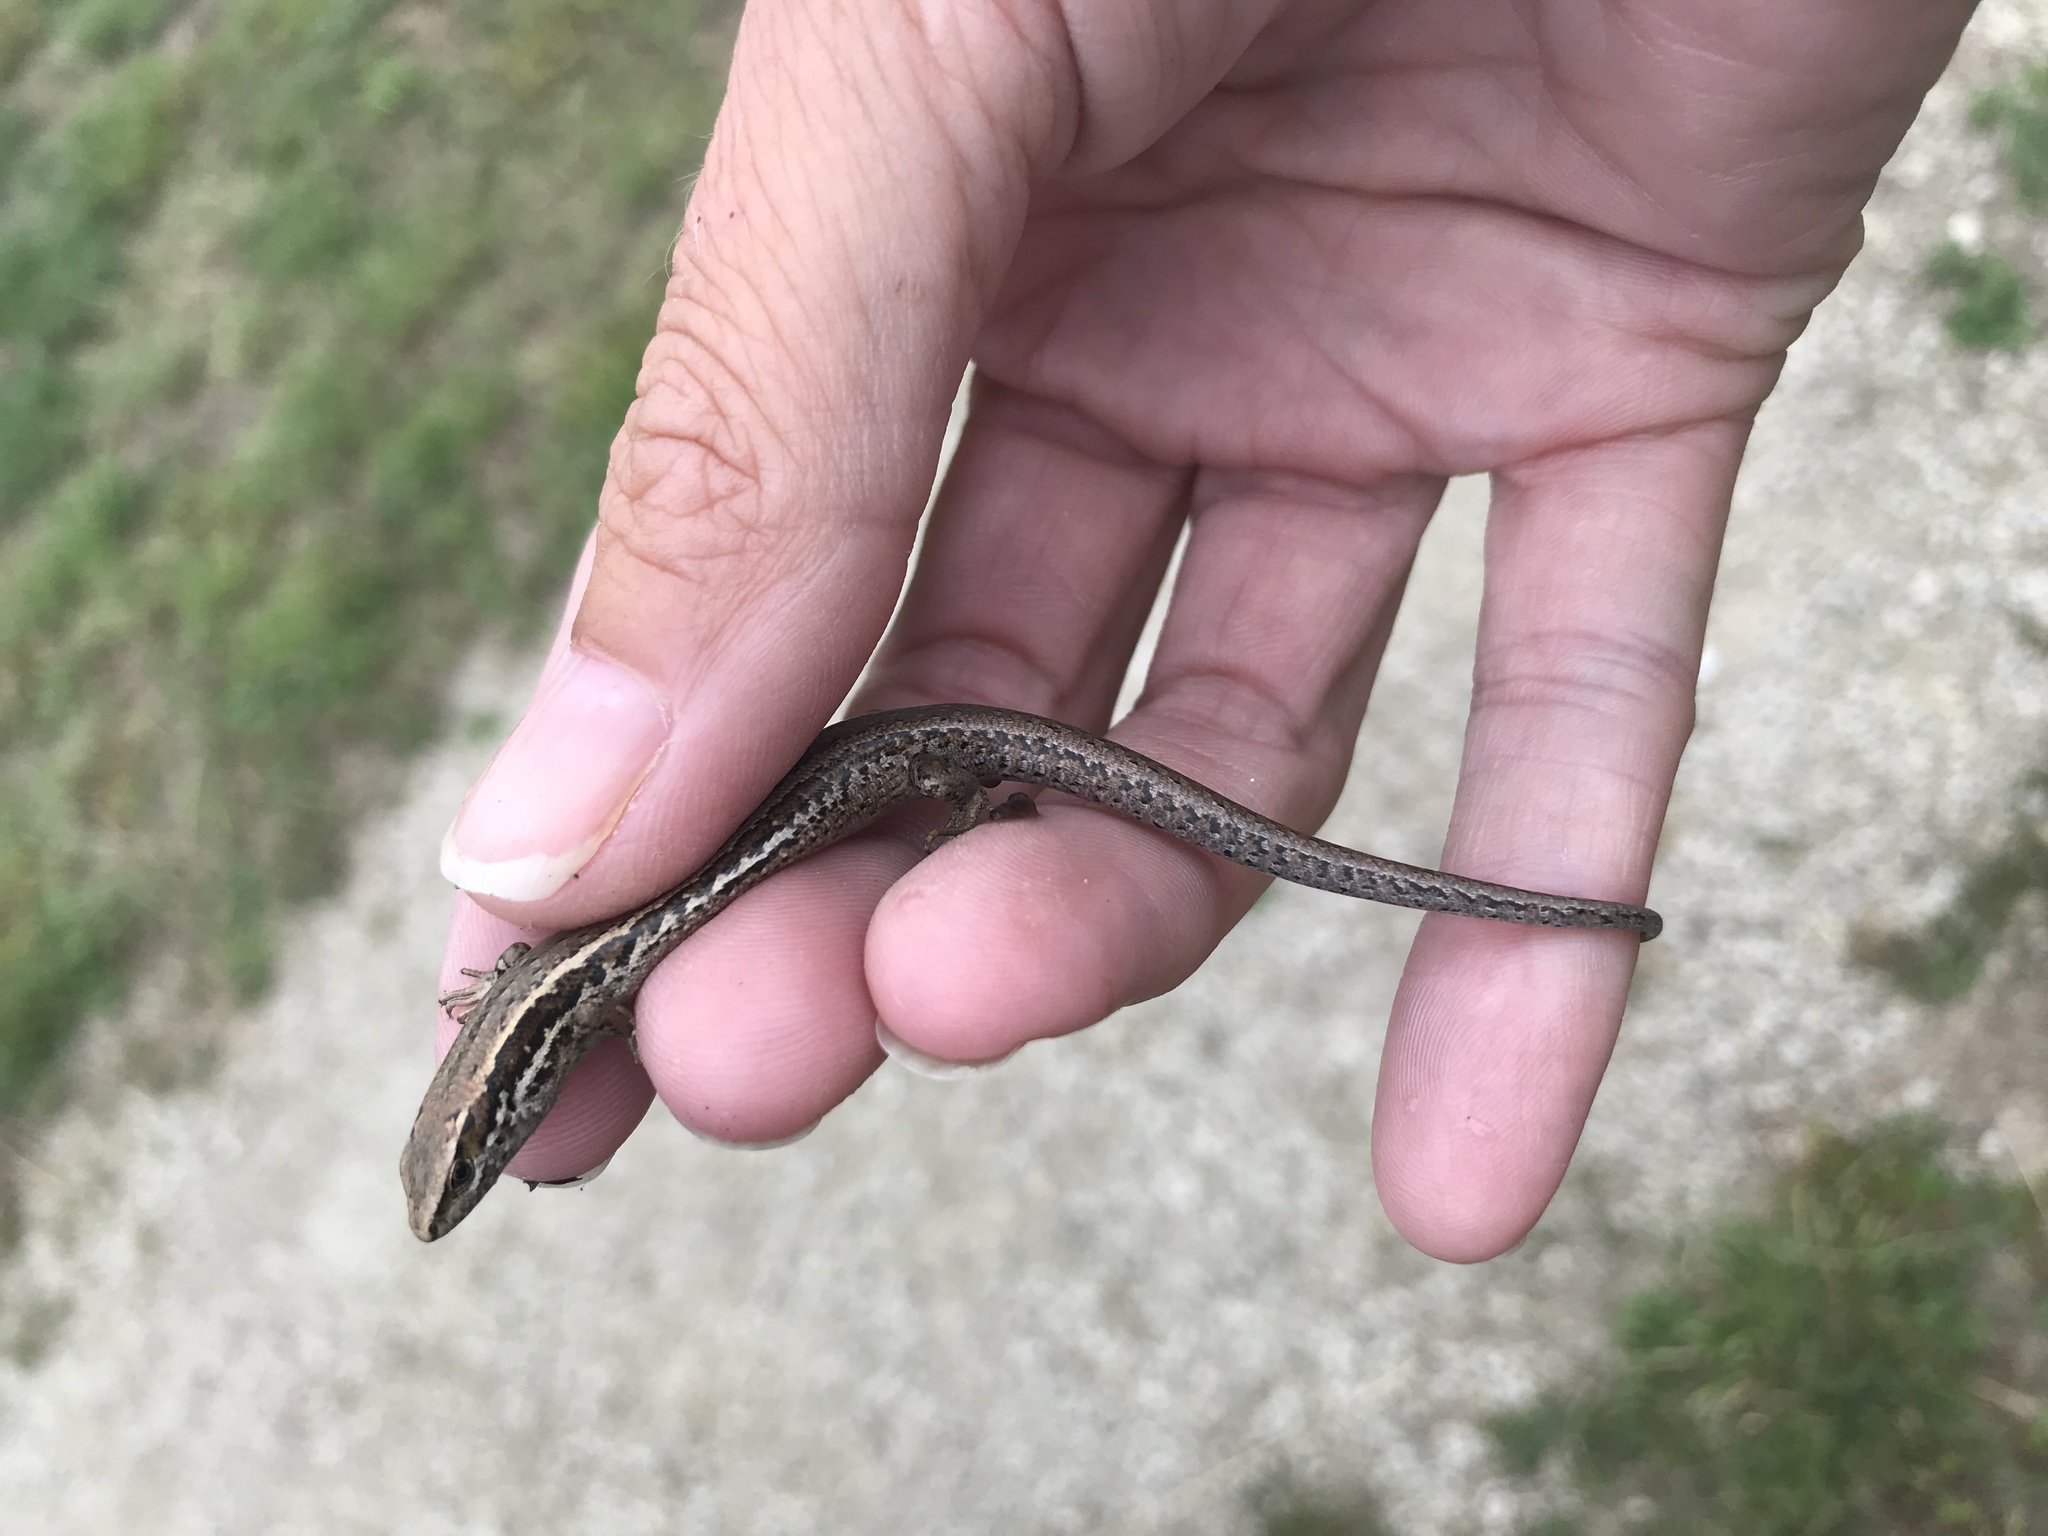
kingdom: Animalia
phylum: Chordata
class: Squamata
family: Scincidae
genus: Oligosoma
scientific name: Oligosoma polychroma
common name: Common new zealand skink
